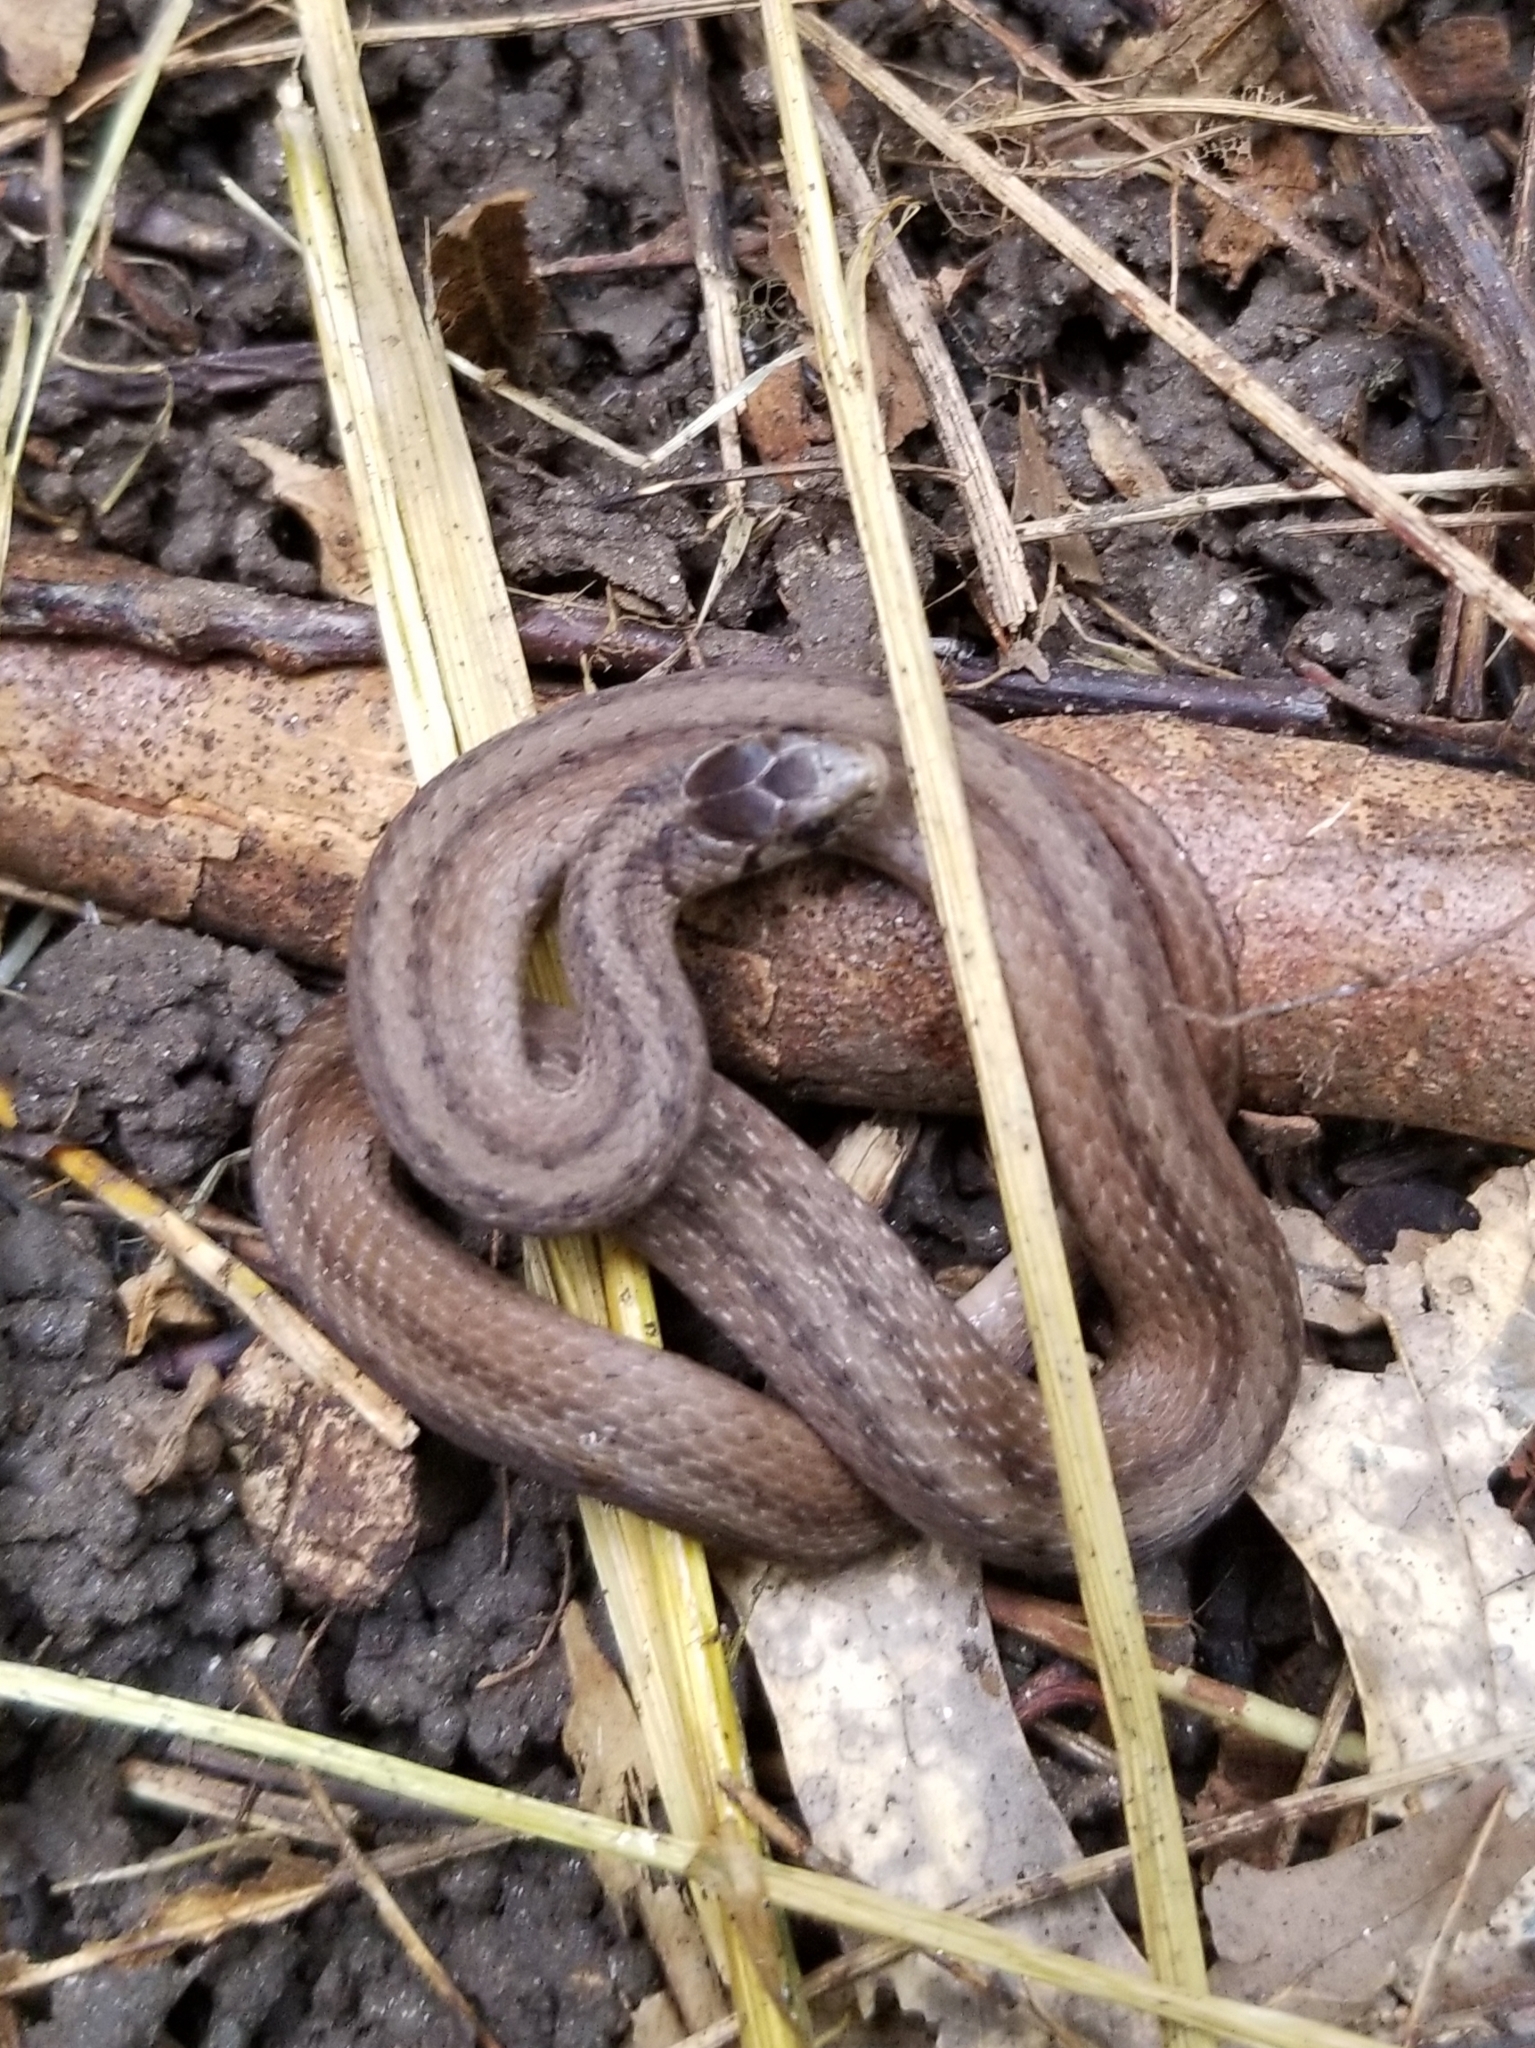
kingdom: Animalia
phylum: Chordata
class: Squamata
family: Colubridae
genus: Storeria
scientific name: Storeria dekayi
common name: (dekay’s) brown snake
